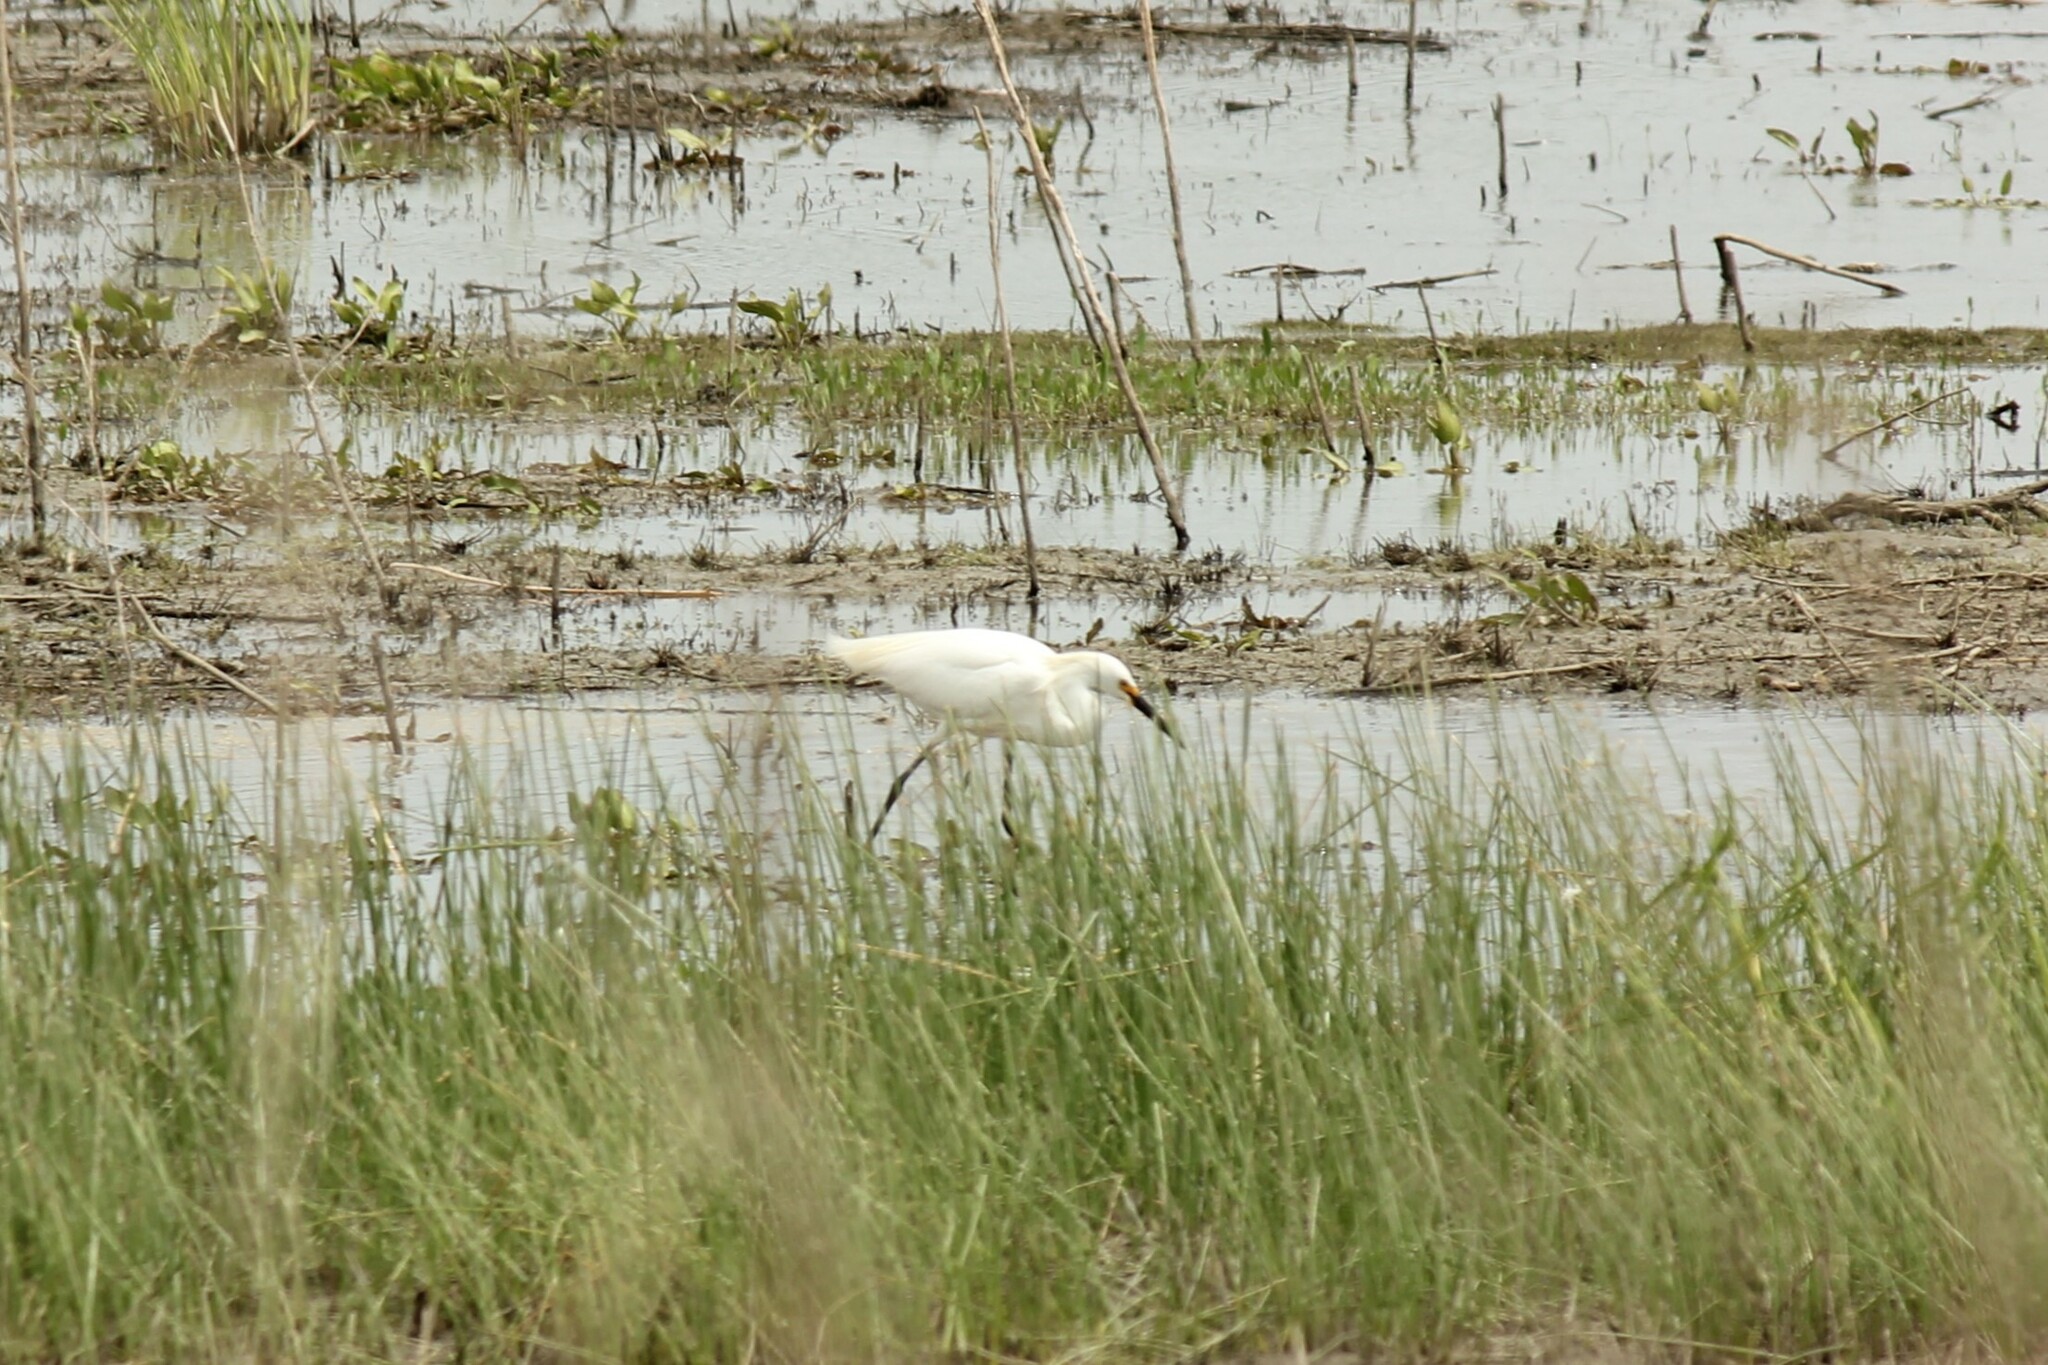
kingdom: Animalia
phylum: Chordata
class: Aves
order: Pelecaniformes
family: Ardeidae
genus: Egretta
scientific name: Egretta thula
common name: Snowy egret
